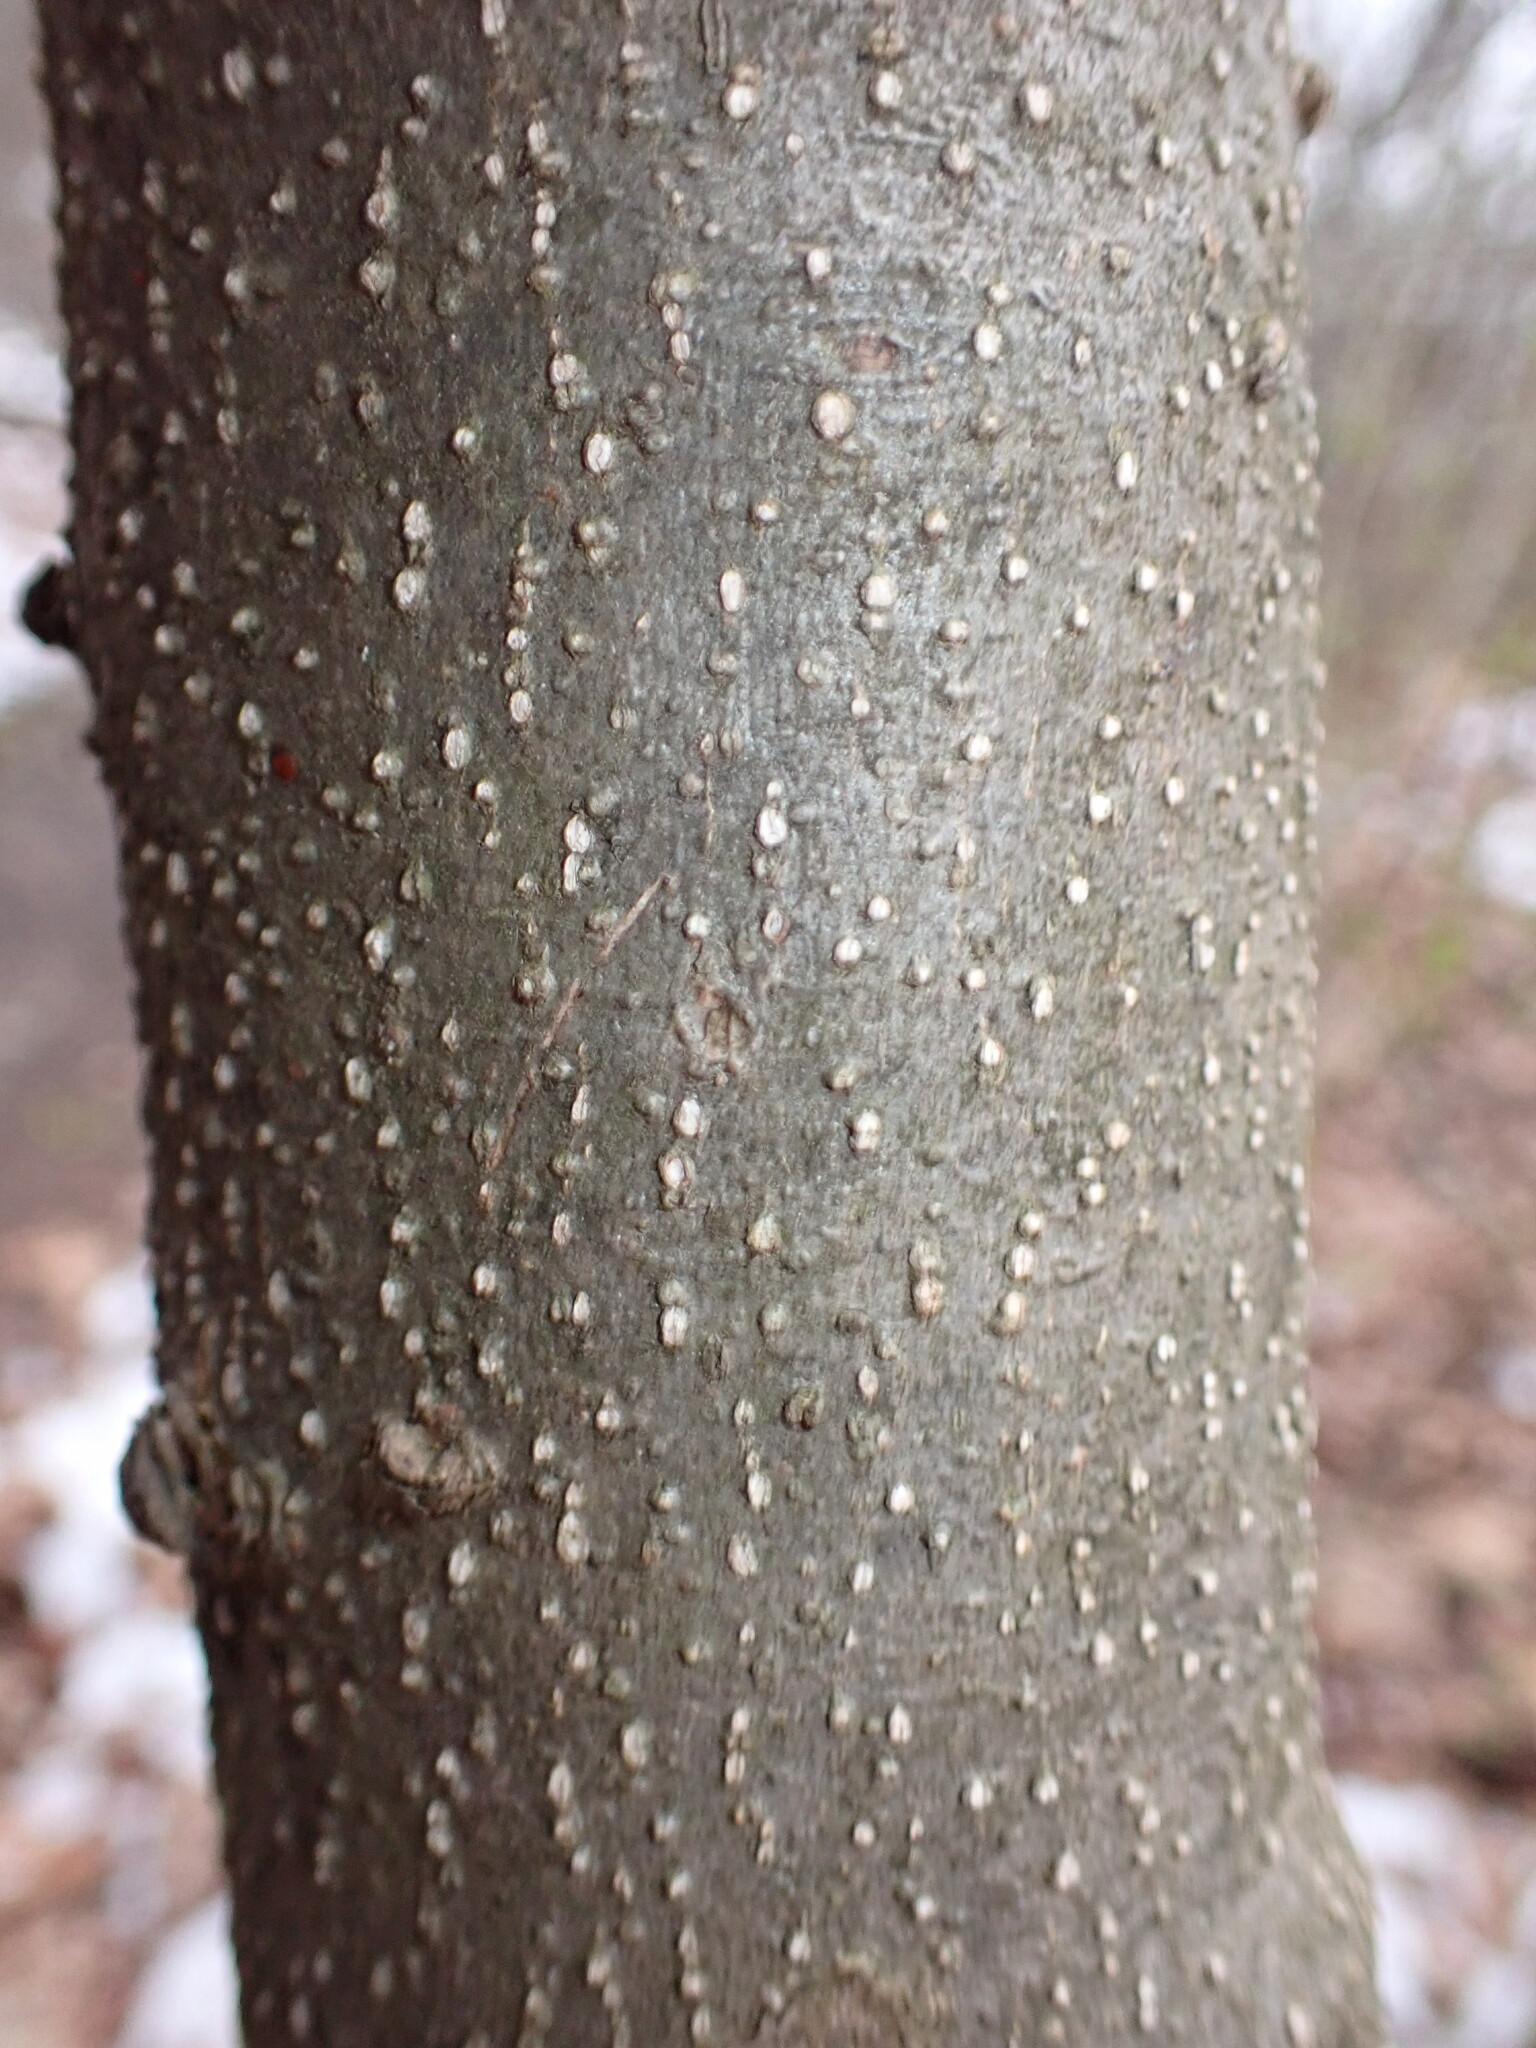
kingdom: Plantae
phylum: Tracheophyta
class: Magnoliopsida
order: Lamiales
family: Oleaceae
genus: Ligustrum
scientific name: Ligustrum obtusifolium
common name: Border privet
